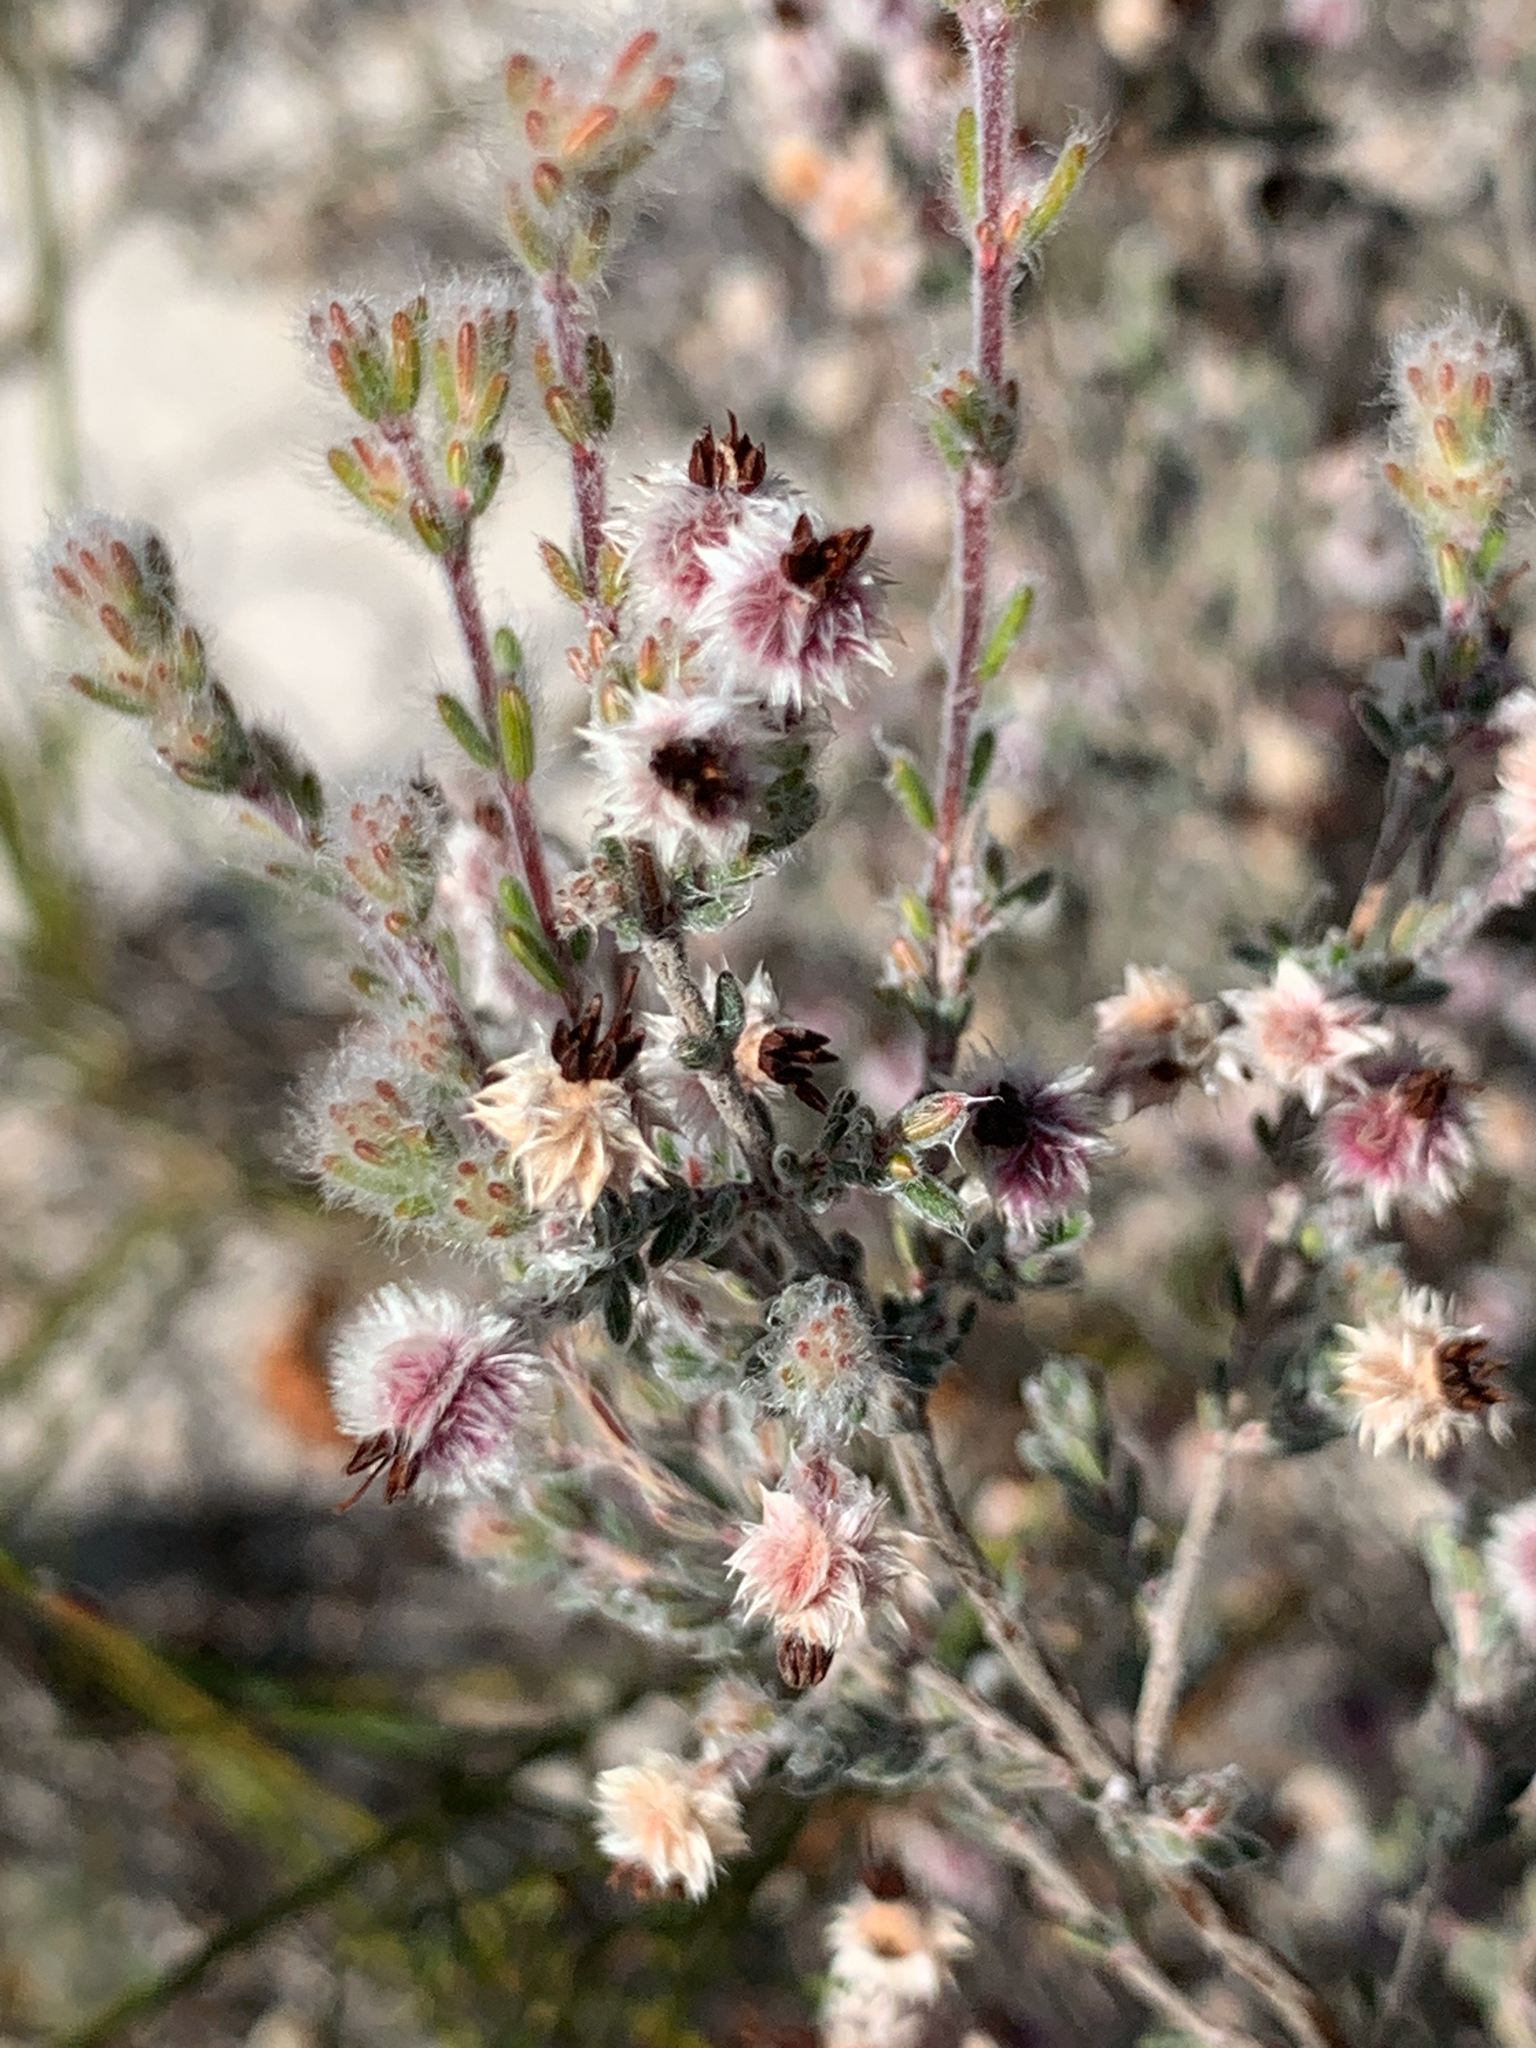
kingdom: Plantae
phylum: Tracheophyta
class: Magnoliopsida
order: Ericales
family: Ericaceae
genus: Erica
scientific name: Erica bruniades
